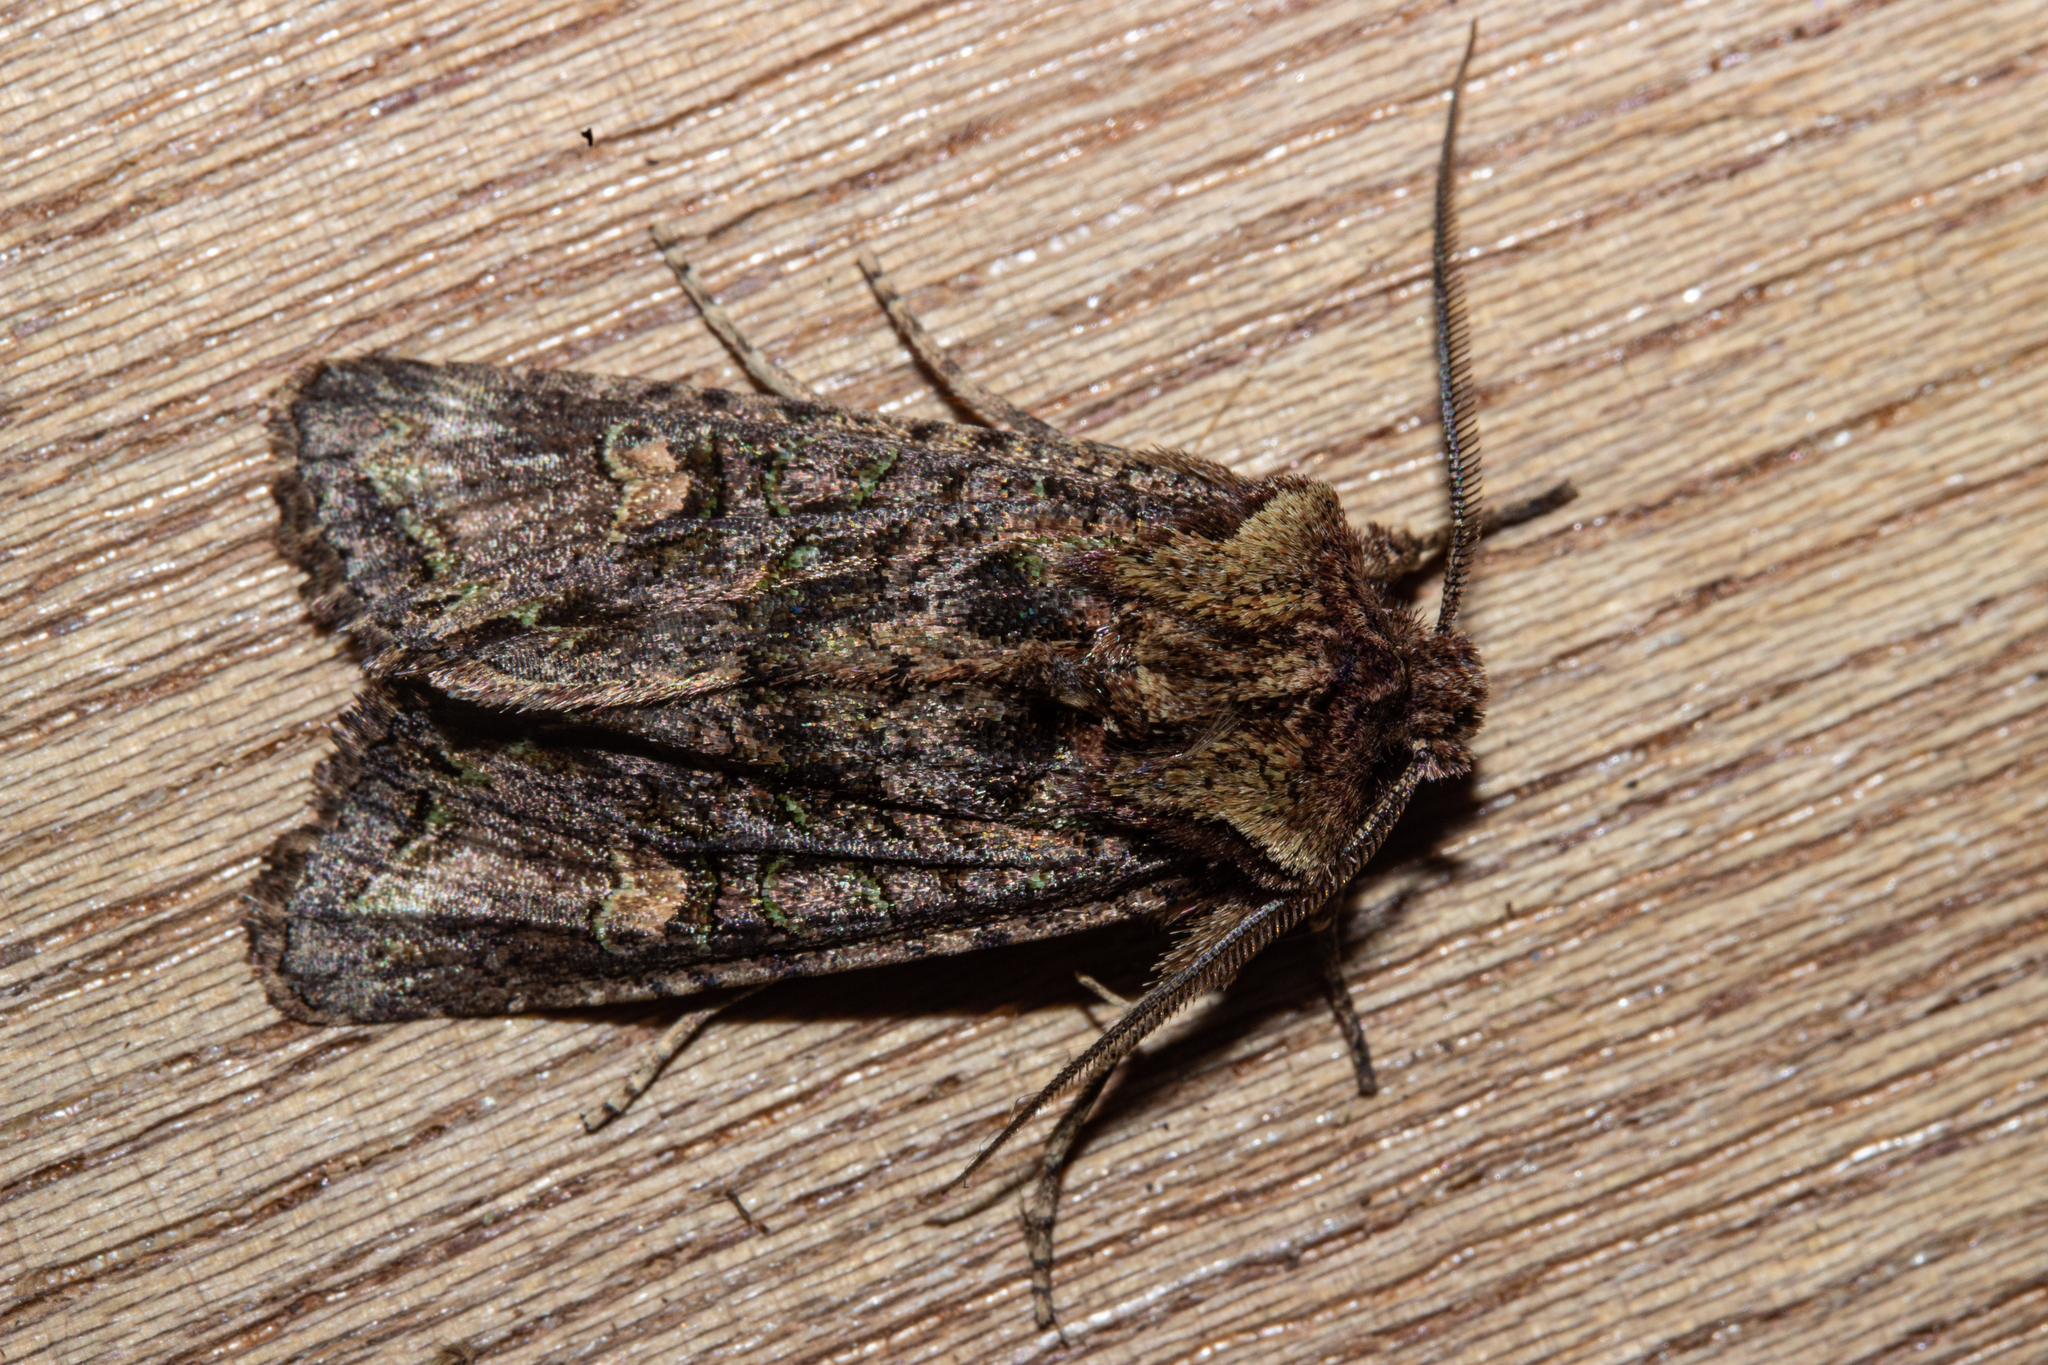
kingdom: Animalia
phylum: Arthropoda
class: Insecta
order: Lepidoptera
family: Noctuidae
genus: Ichneutica
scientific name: Ichneutica skelloni
